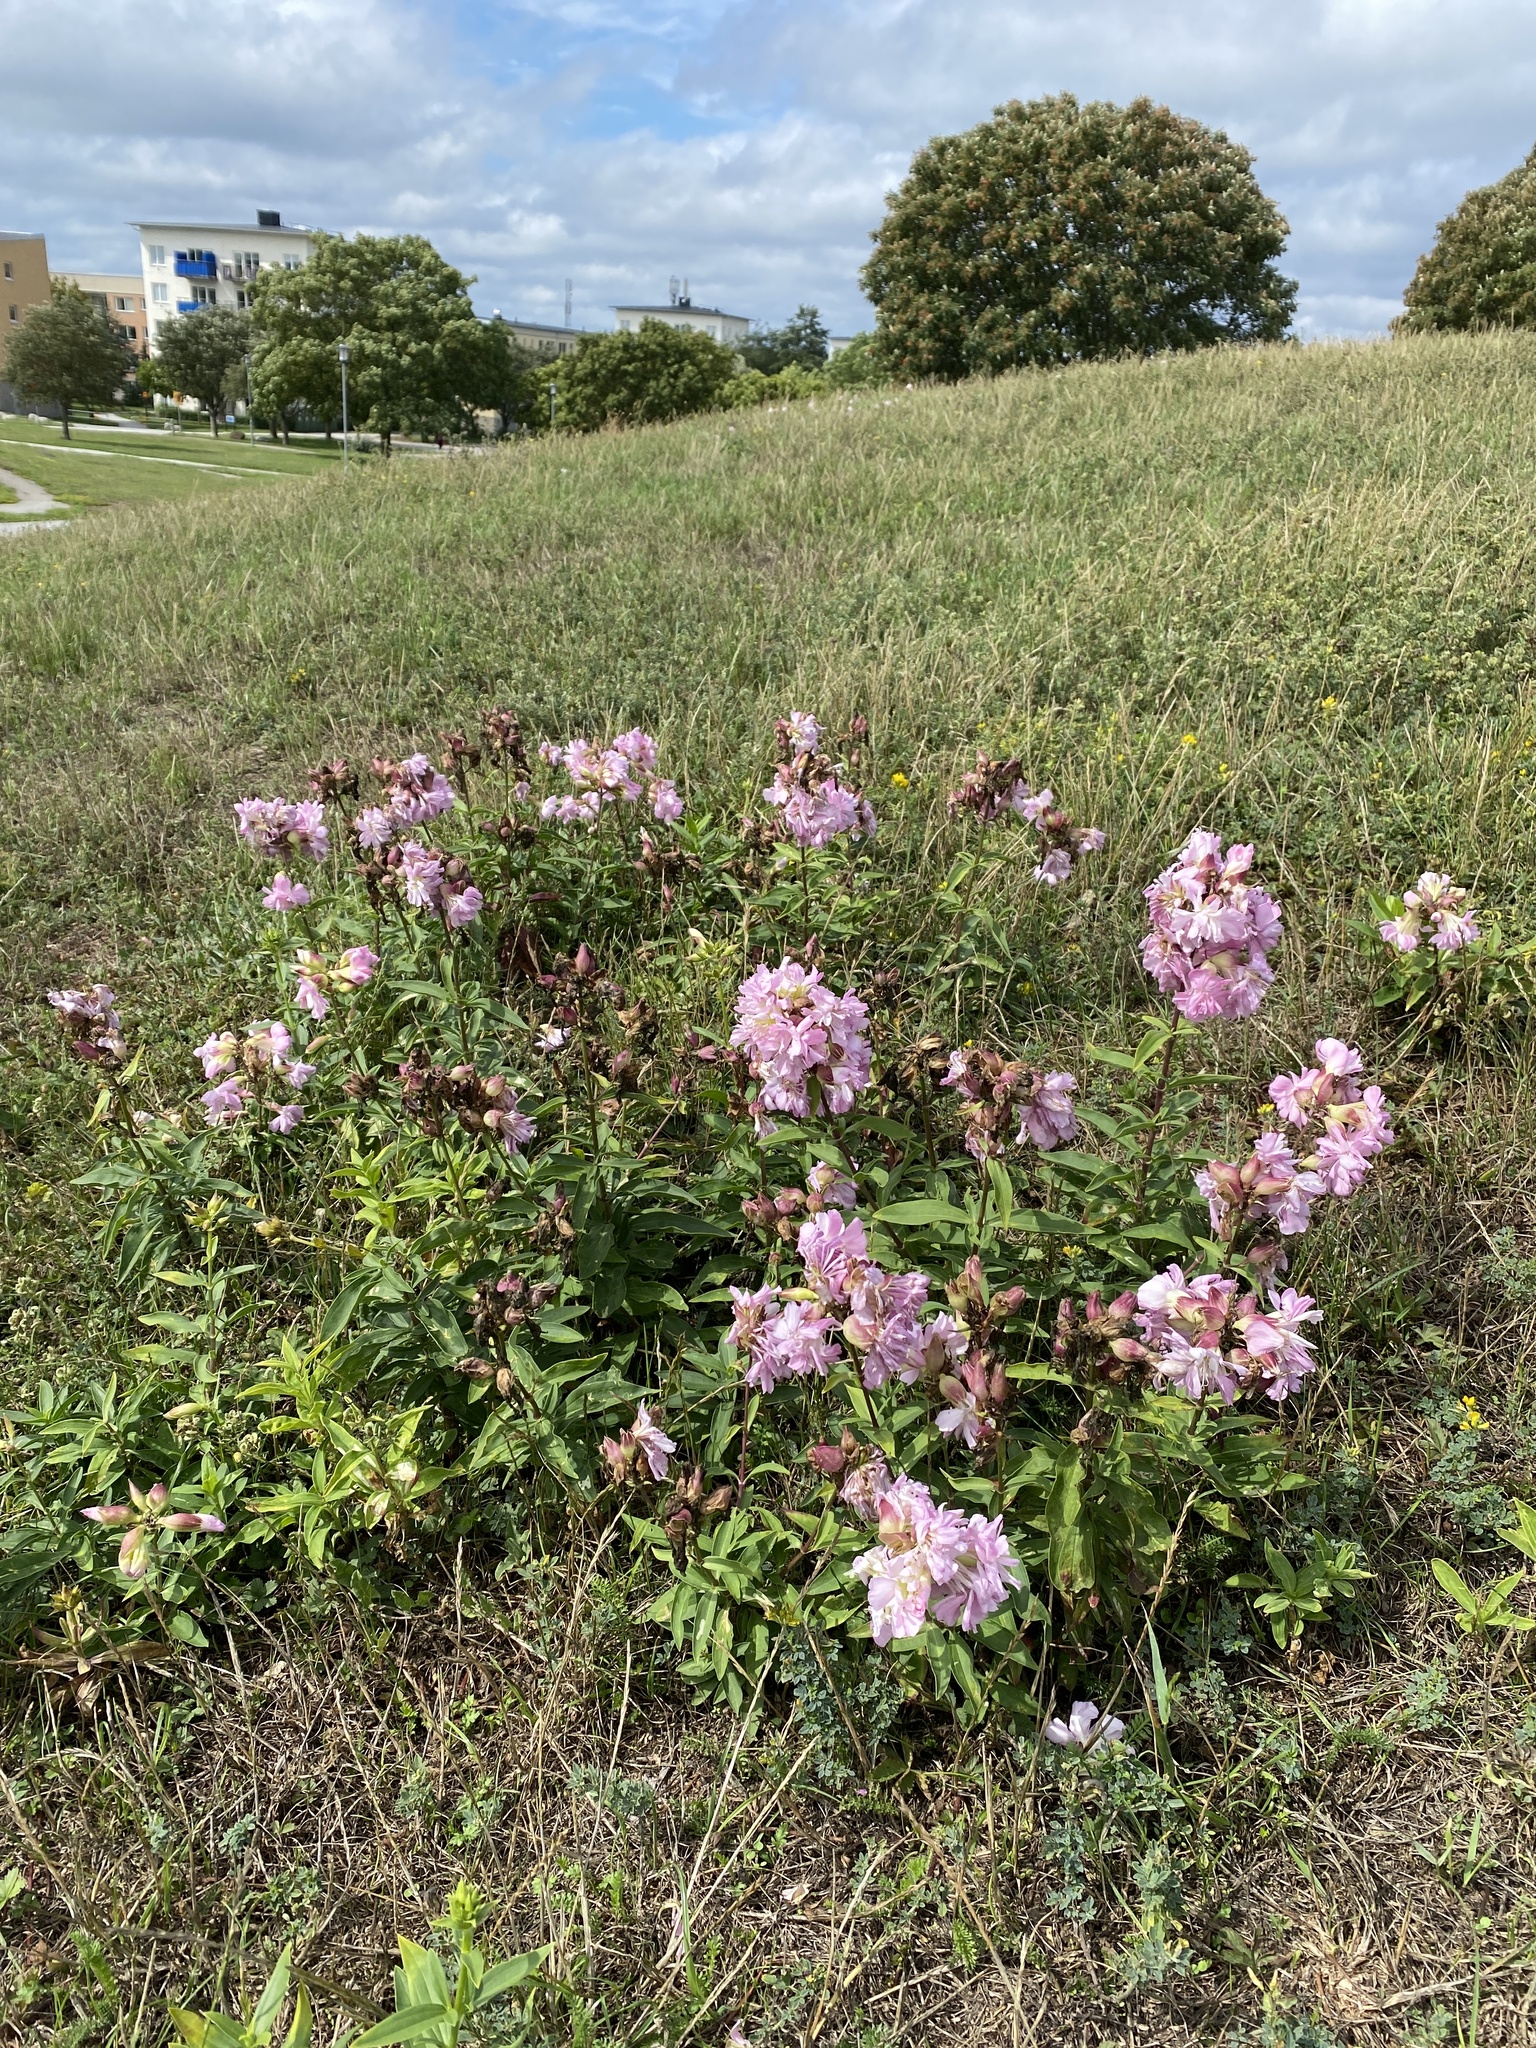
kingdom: Plantae
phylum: Tracheophyta
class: Magnoliopsida
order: Caryophyllales
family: Caryophyllaceae
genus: Saponaria
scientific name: Saponaria officinalis
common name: Soapwort
